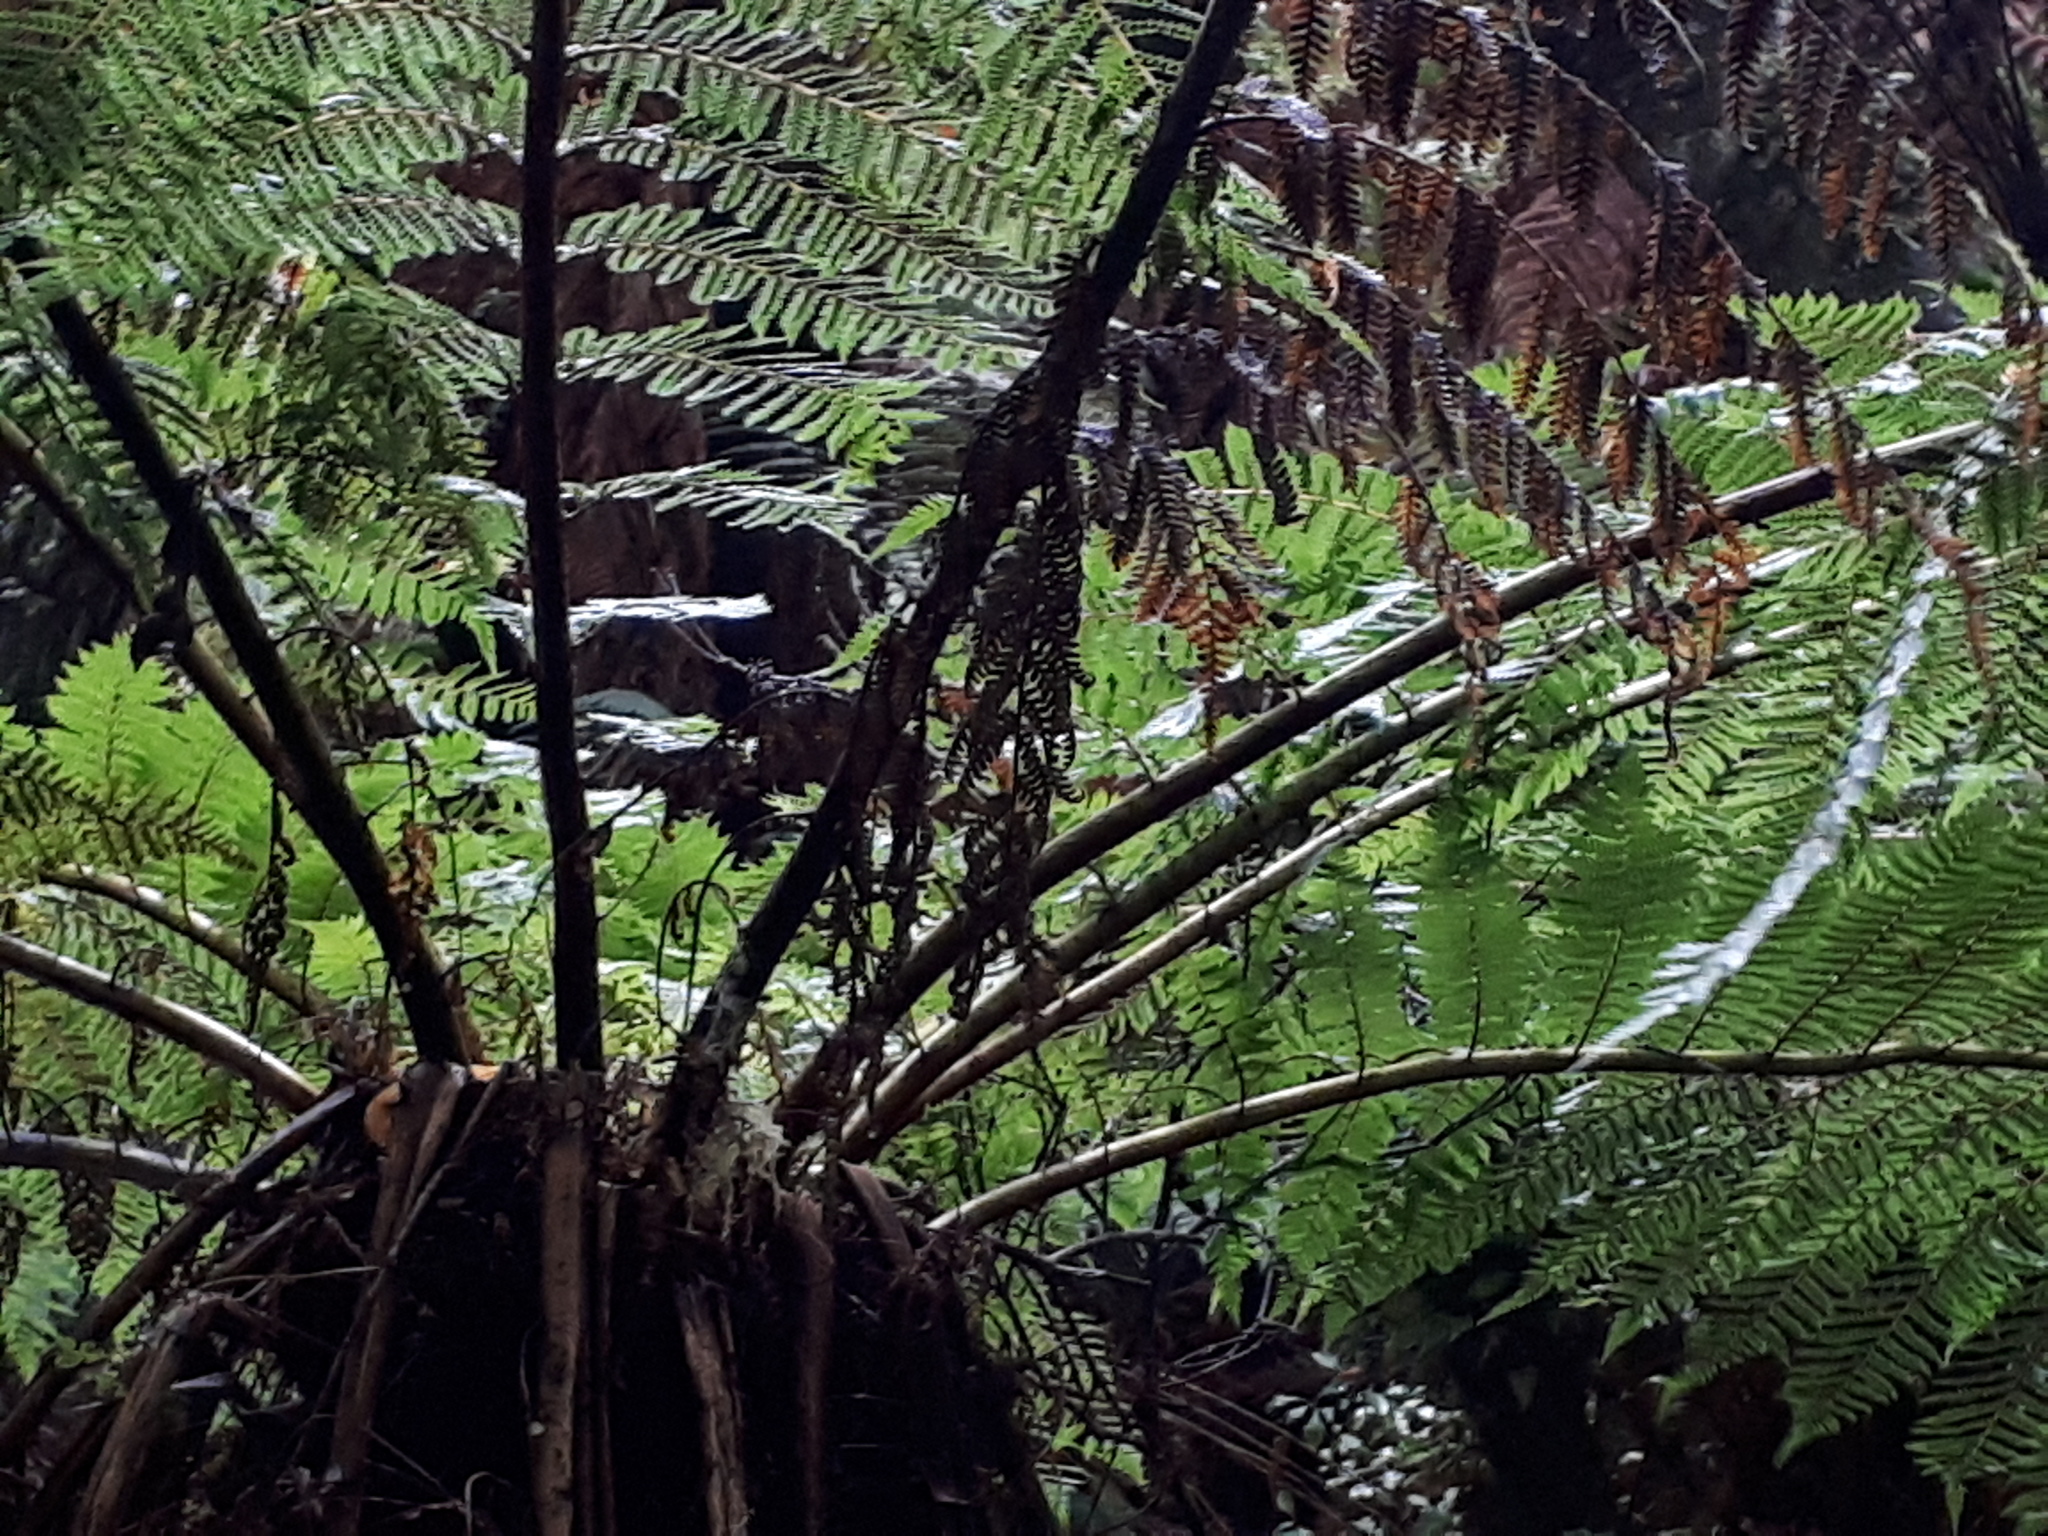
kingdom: Plantae
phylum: Tracheophyta
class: Polypodiopsida
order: Cyatheales
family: Cyatheaceae
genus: Alsophila
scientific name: Alsophila smithii
